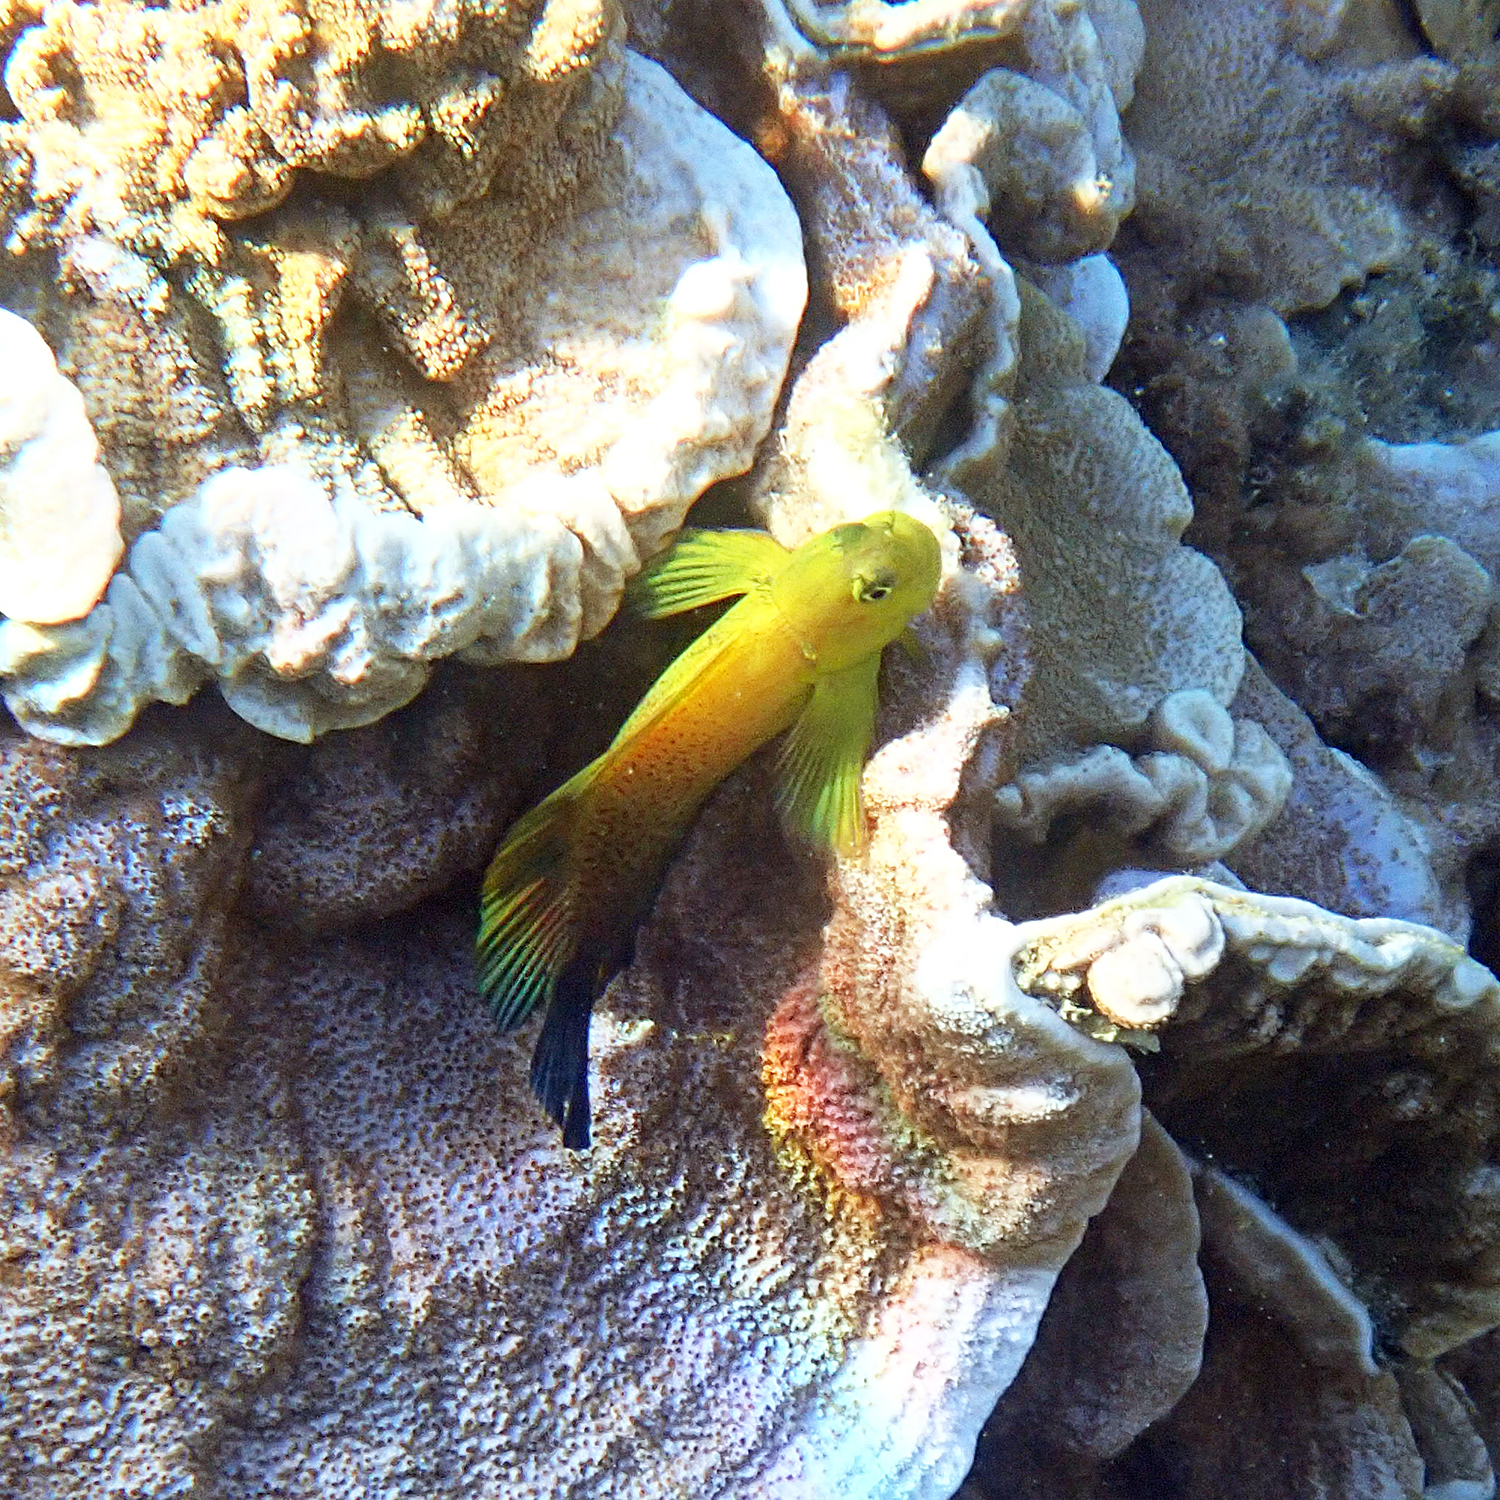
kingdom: Animalia
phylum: Chordata
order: Perciformes
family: Blenniidae
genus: Cirripectes
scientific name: Cirripectes chelomatus
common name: Lady musgrave blenny
